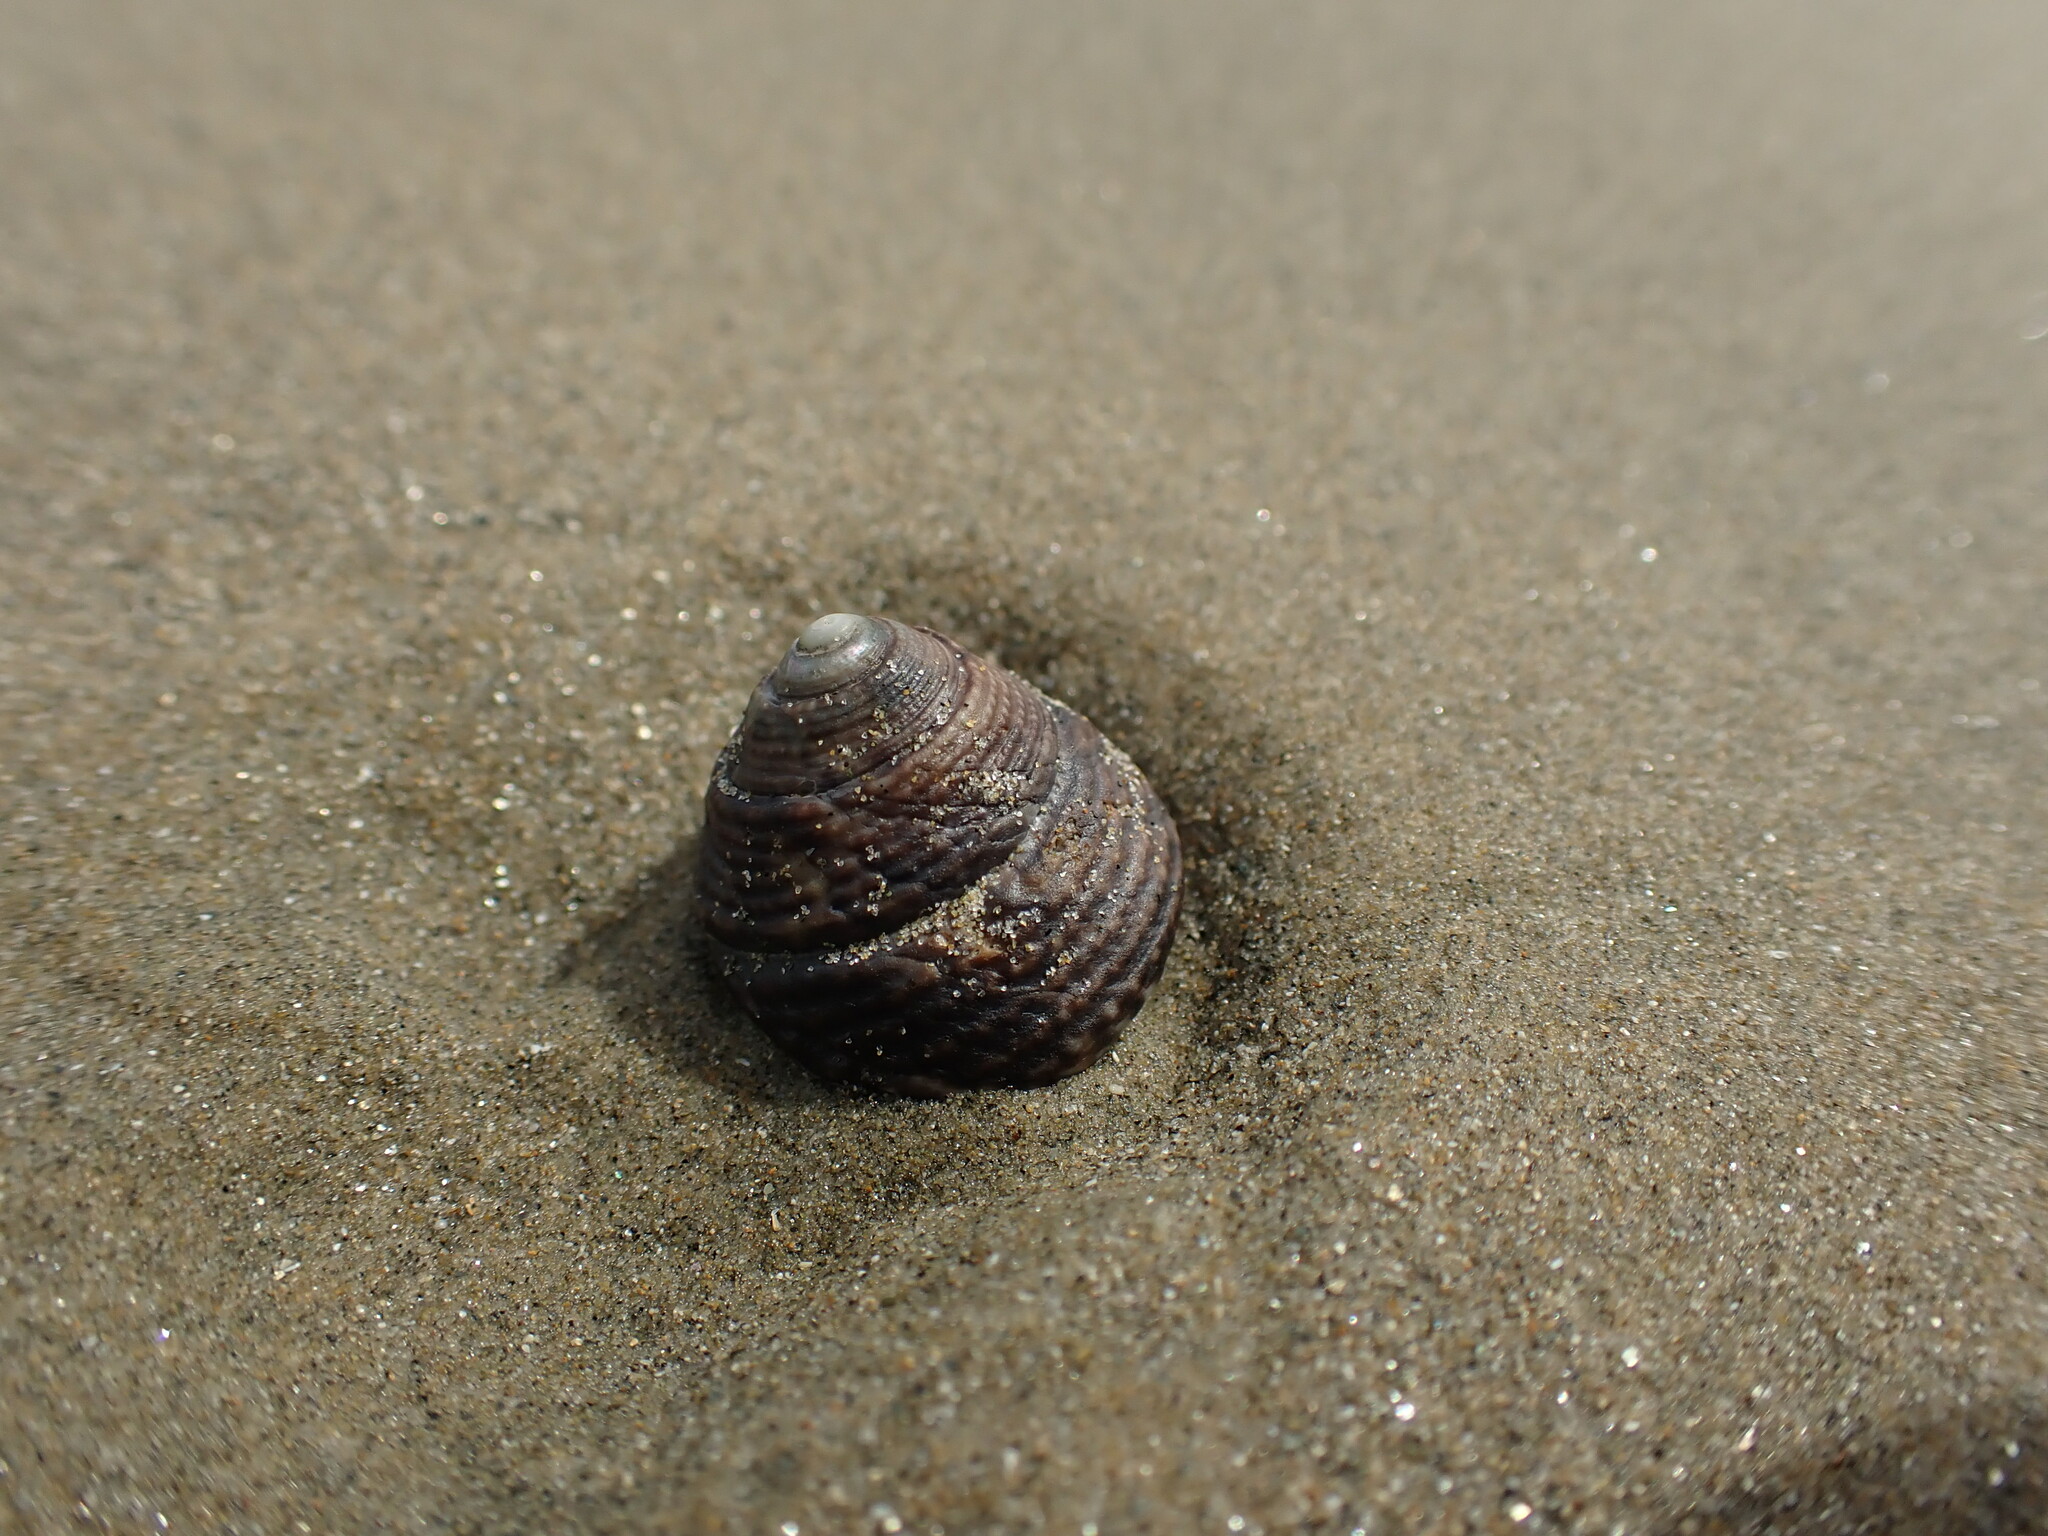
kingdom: Animalia
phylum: Mollusca
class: Gastropoda
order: Trochida
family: Trochidae
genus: Coelotrochus
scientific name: Coelotrochus tiaratus
